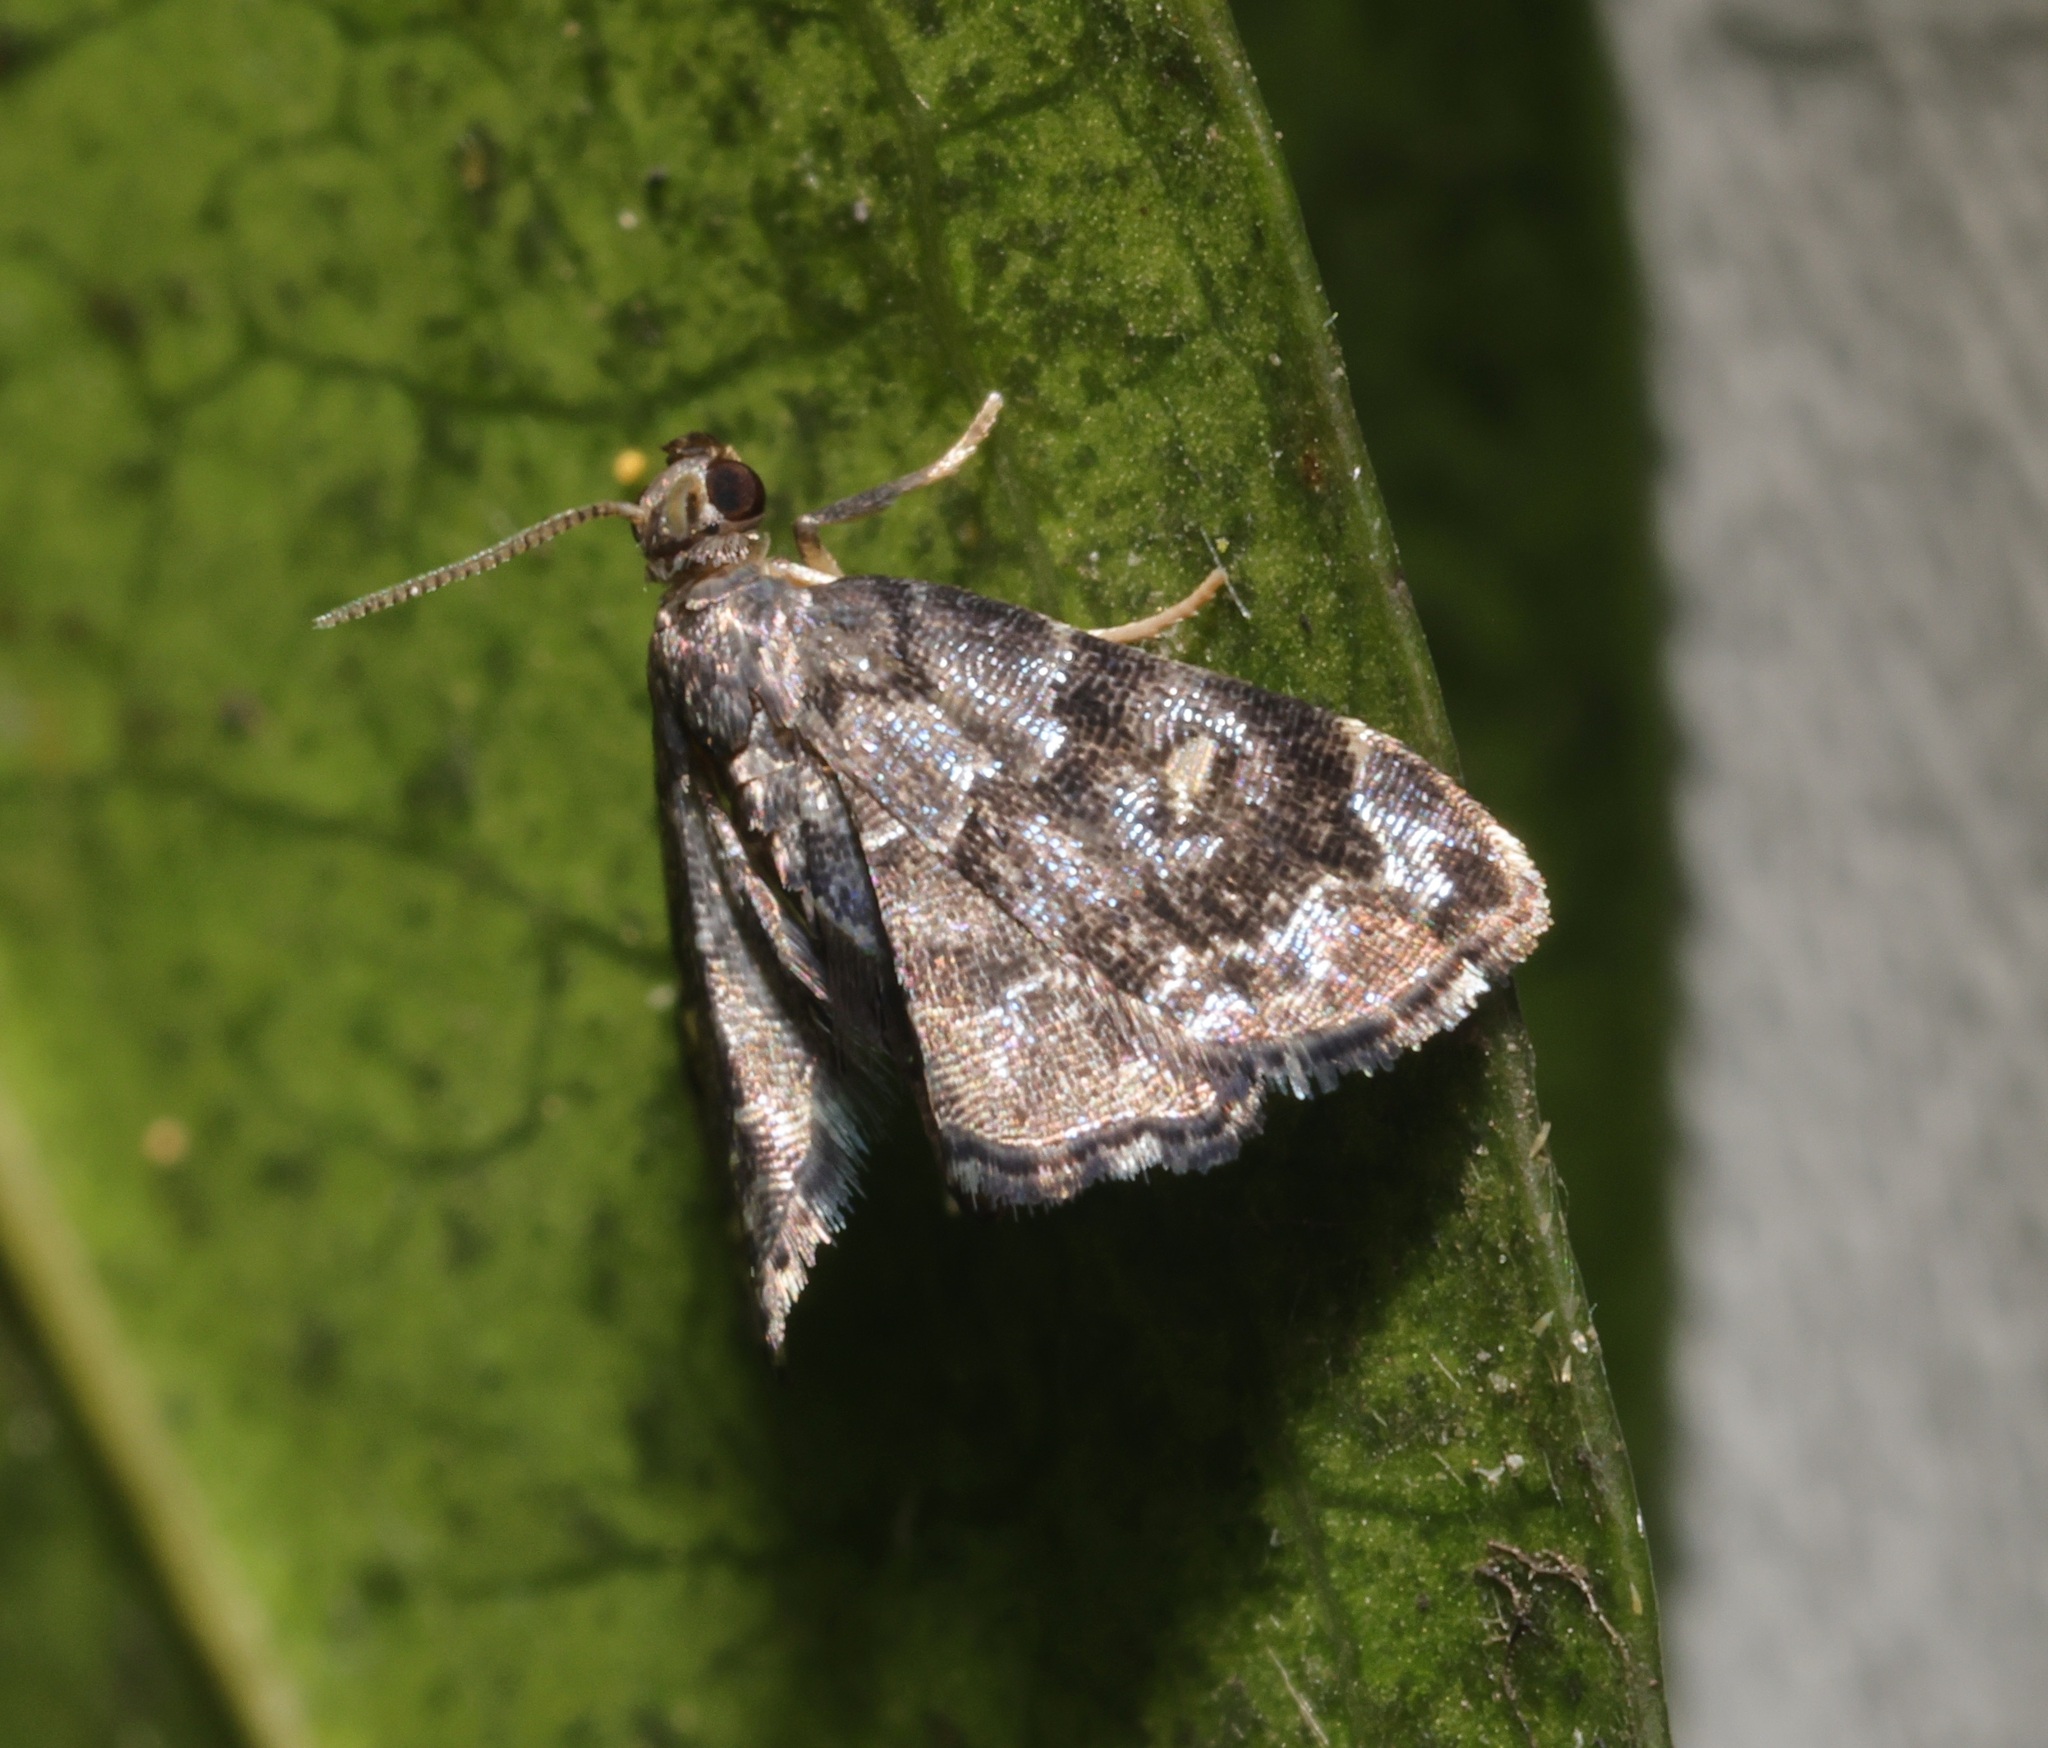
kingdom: Animalia
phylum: Arthropoda
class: Insecta
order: Lepidoptera
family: Pyralidae
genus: Drosophantis
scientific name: Drosophantis caeruleata
